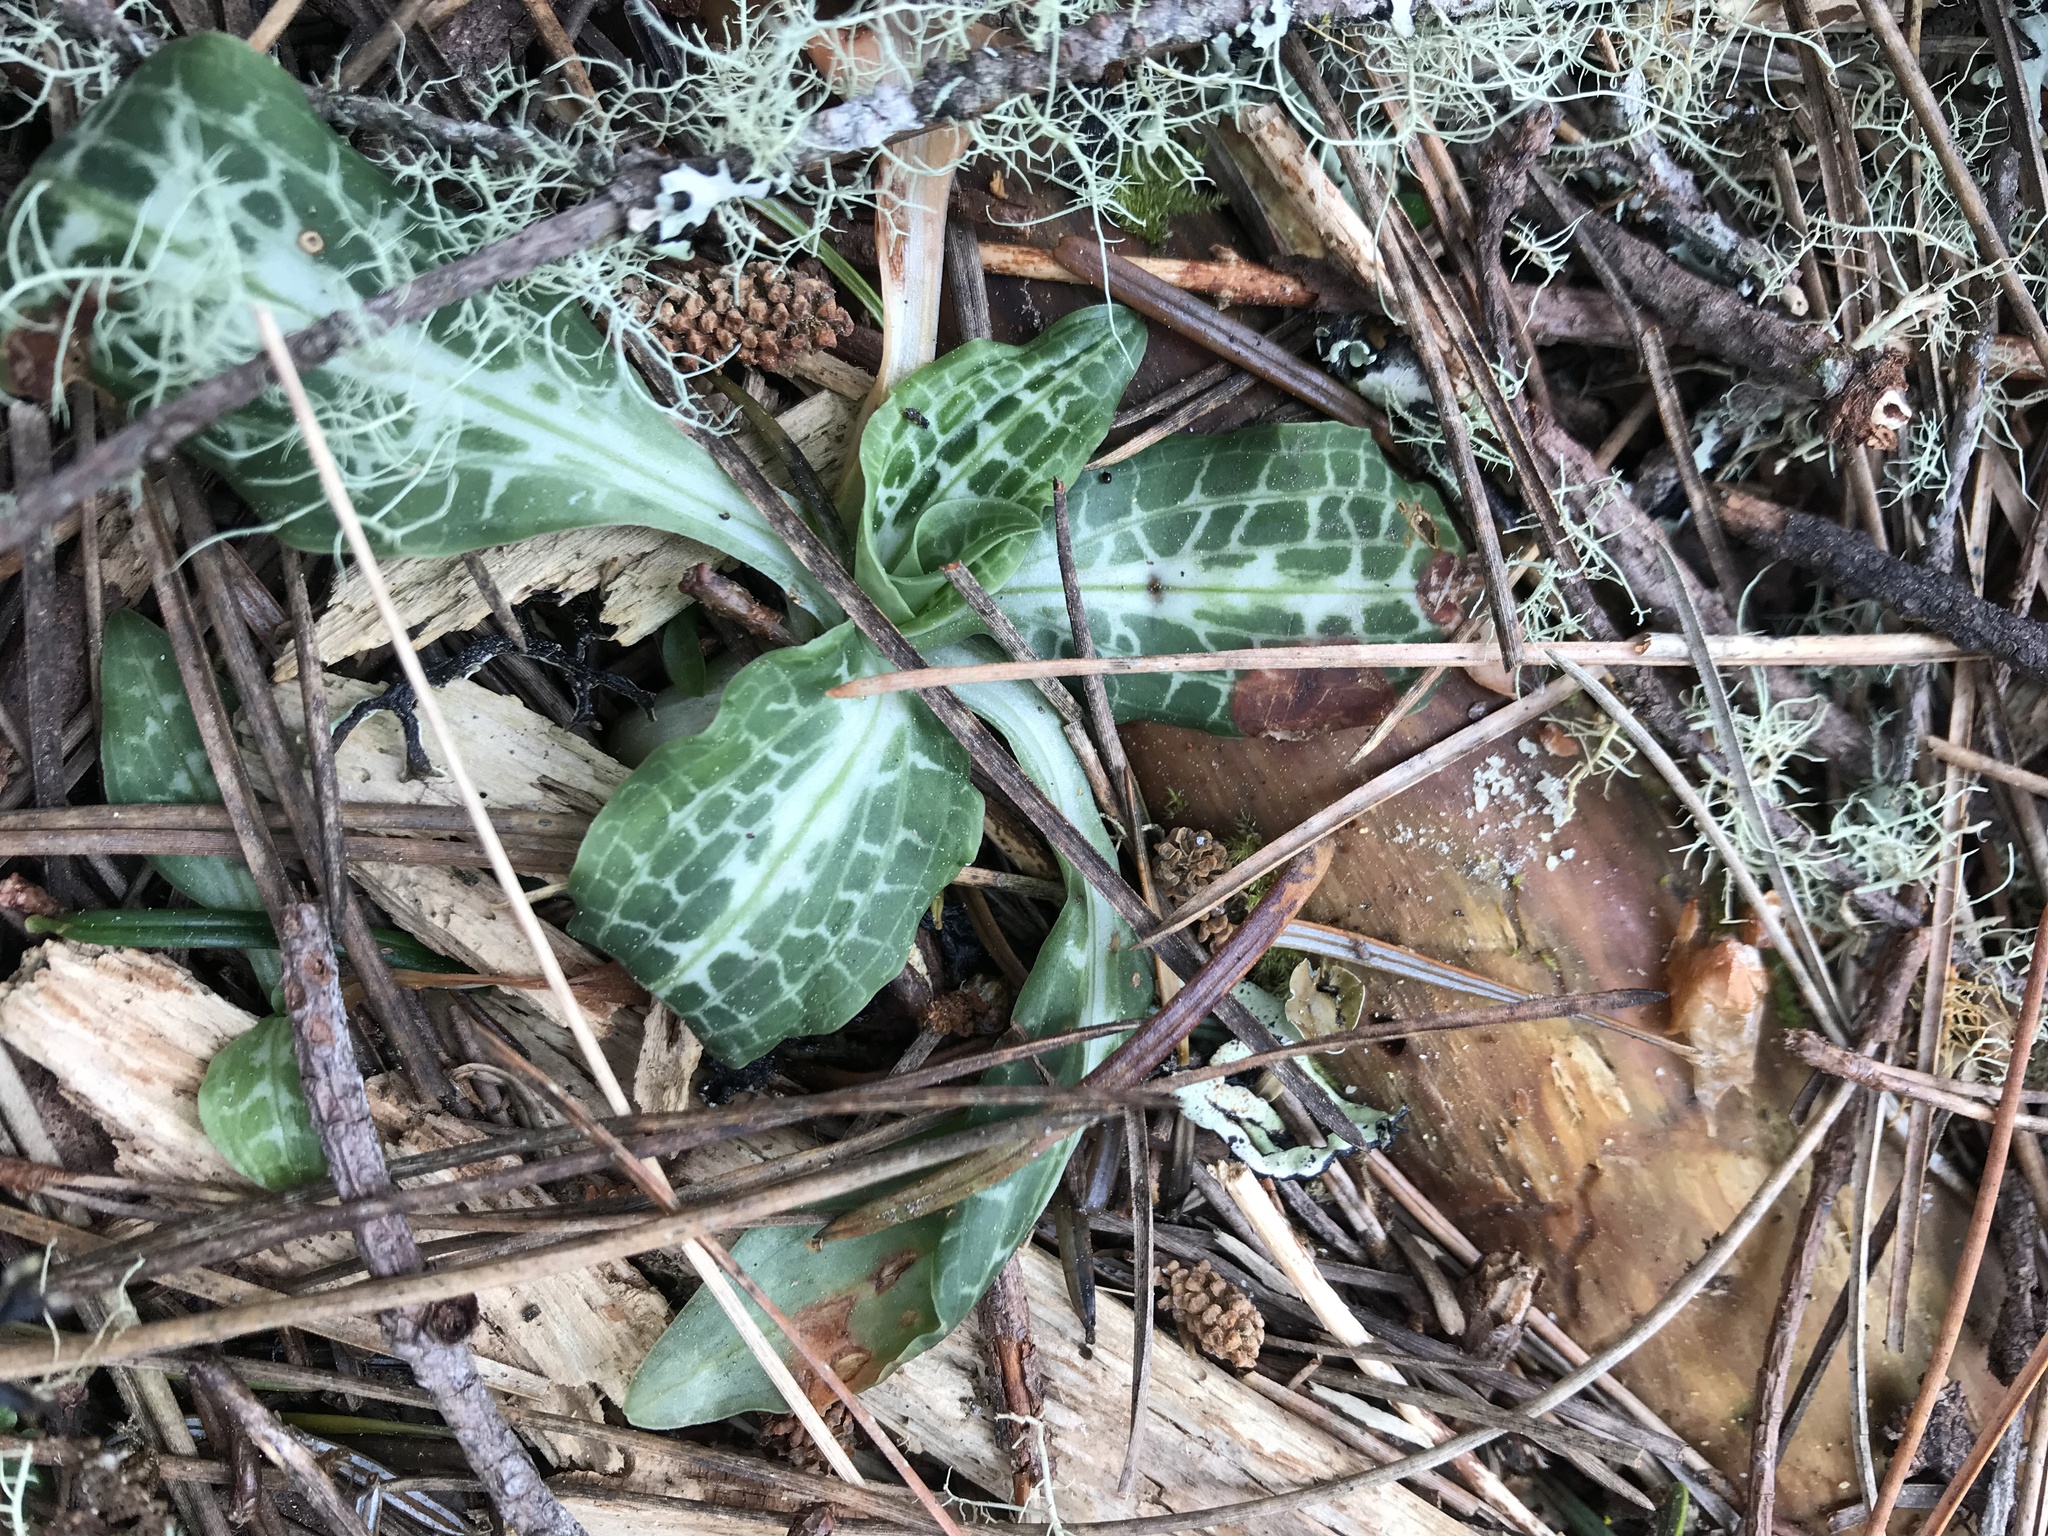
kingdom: Plantae
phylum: Tracheophyta
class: Liliopsida
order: Asparagales
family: Orchidaceae
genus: Goodyera
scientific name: Goodyera oblongifolia
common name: Giant rattlesnake-plantain
